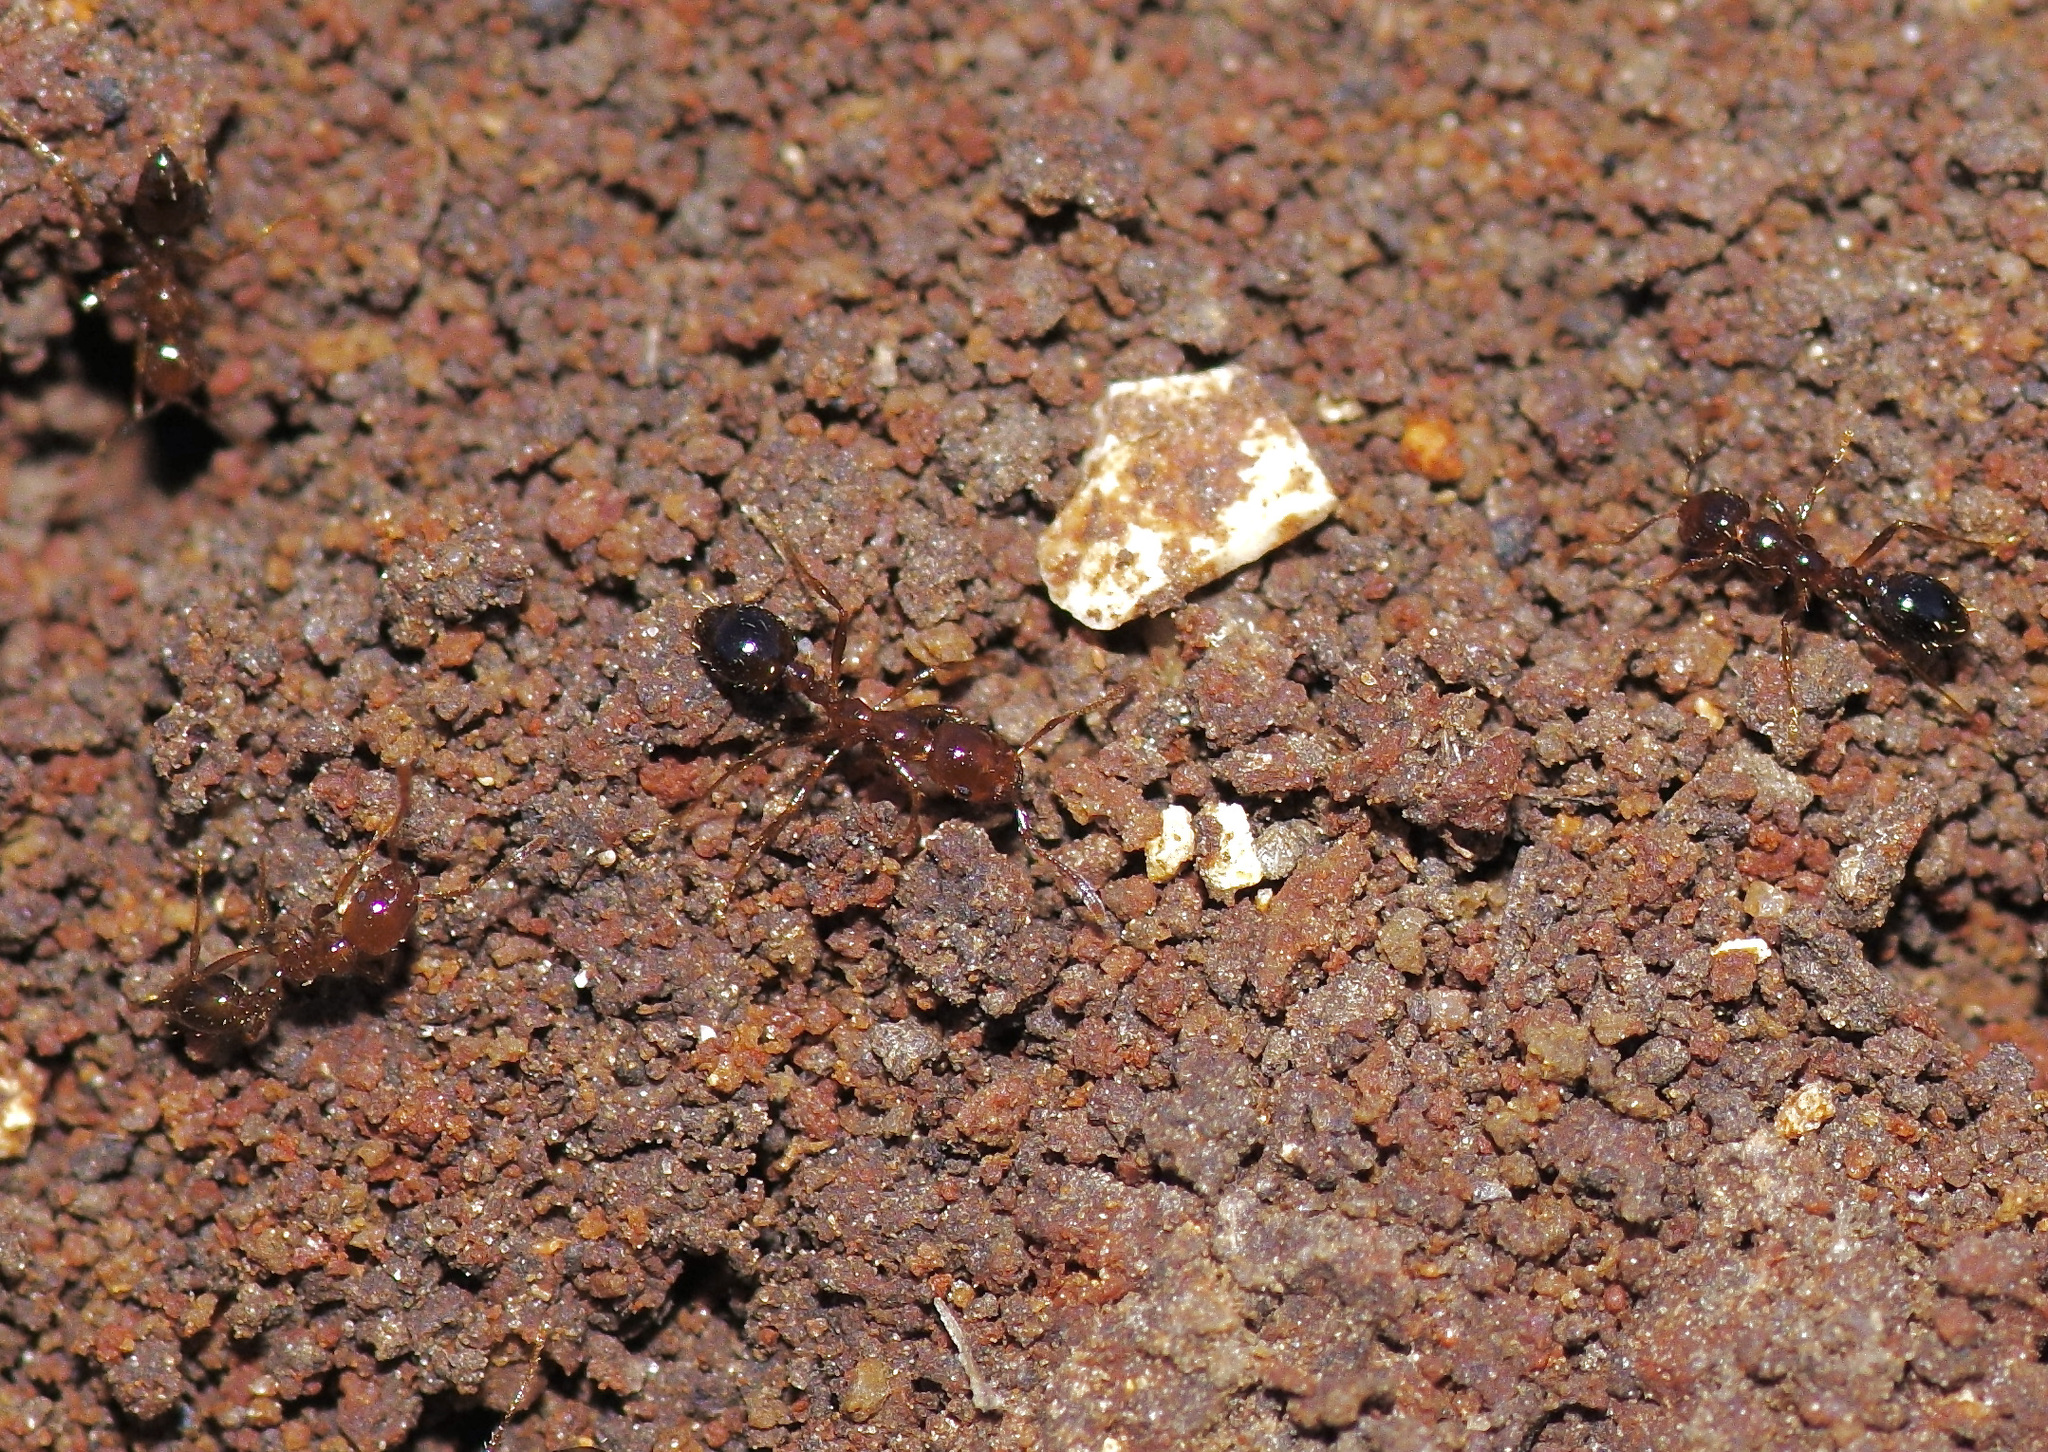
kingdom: Animalia
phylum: Arthropoda
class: Insecta
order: Hymenoptera
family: Formicidae
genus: Solenopsis
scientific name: Solenopsis invicta
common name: Red imported fire ant
